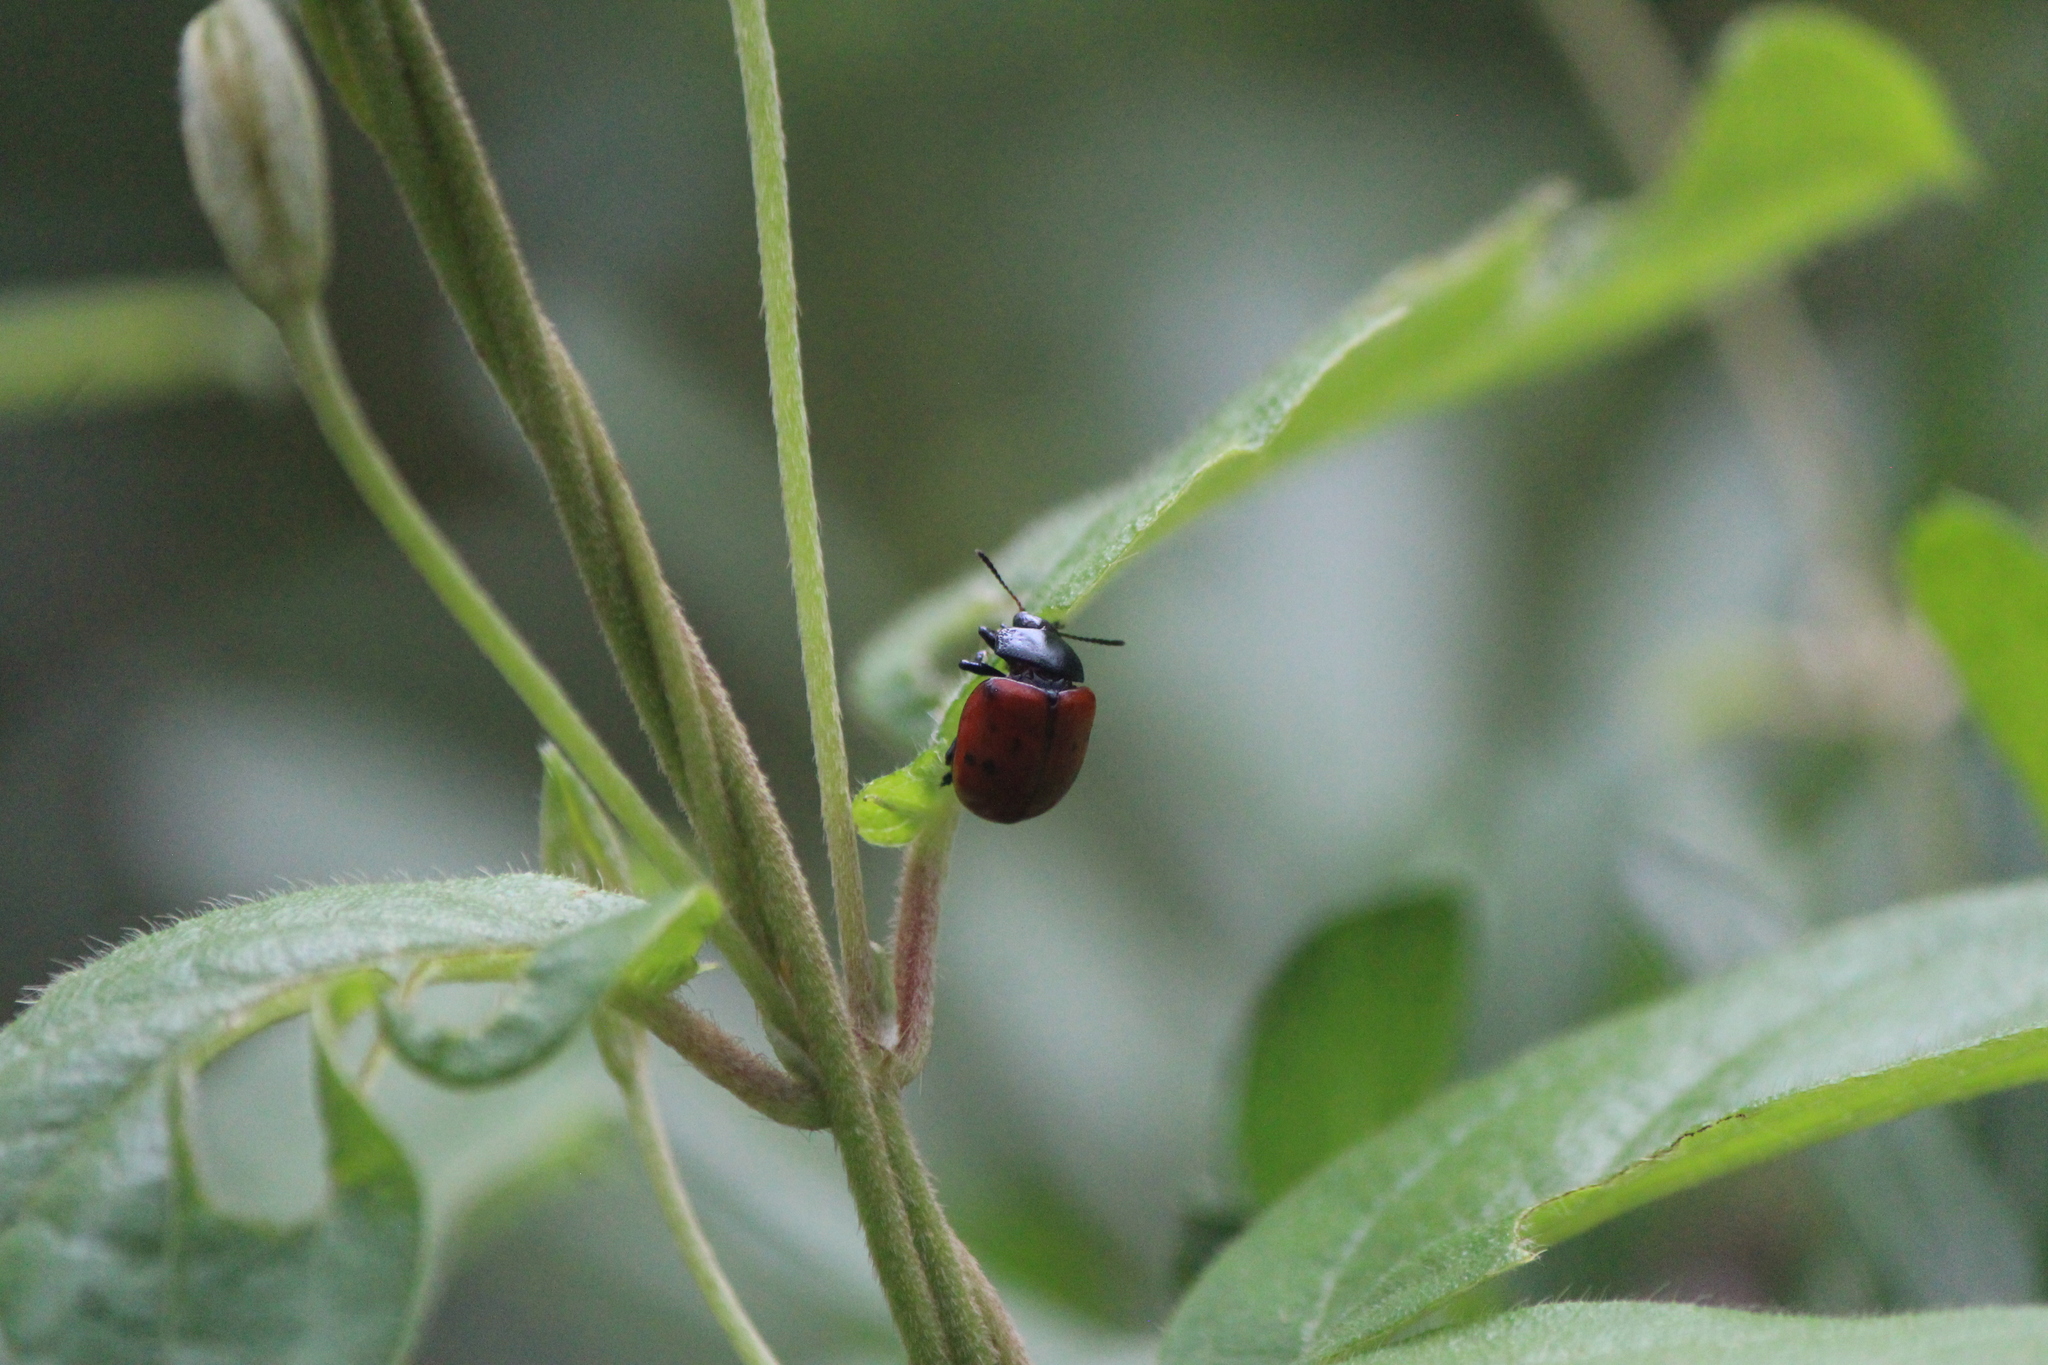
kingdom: Animalia
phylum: Arthropoda
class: Insecta
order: Coleoptera
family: Chrysomelidae
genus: Leptinotarsa
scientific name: Leptinotarsa
